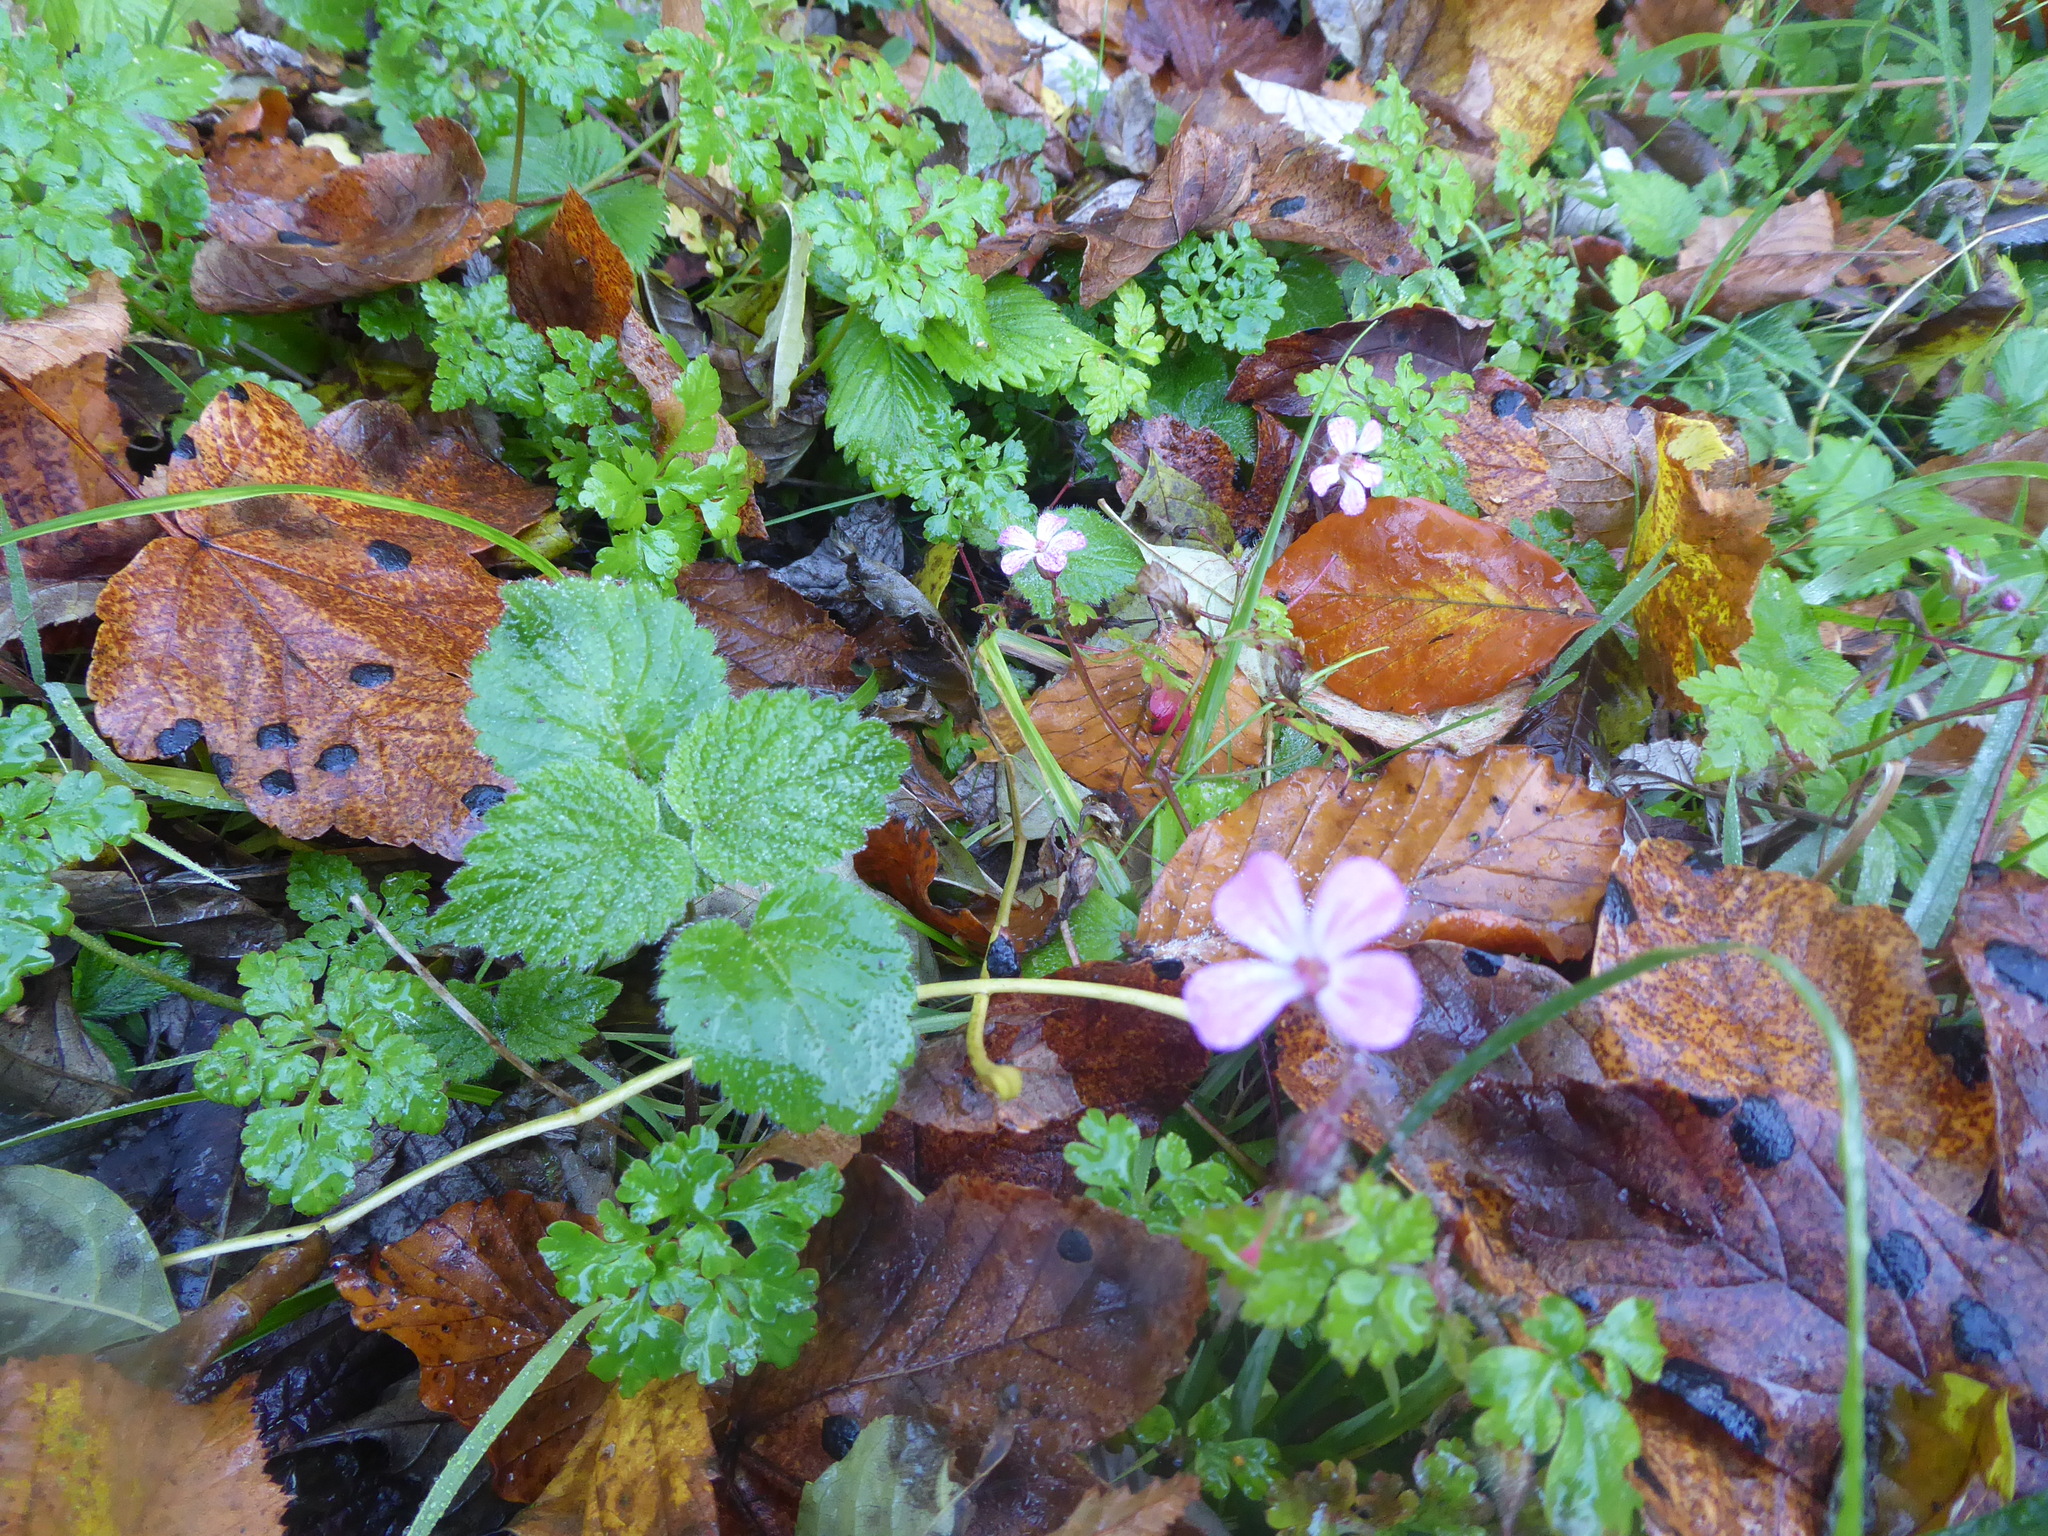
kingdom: Plantae
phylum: Tracheophyta
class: Magnoliopsida
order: Geraniales
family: Geraniaceae
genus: Geranium
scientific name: Geranium robertianum
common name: Herb-robert
